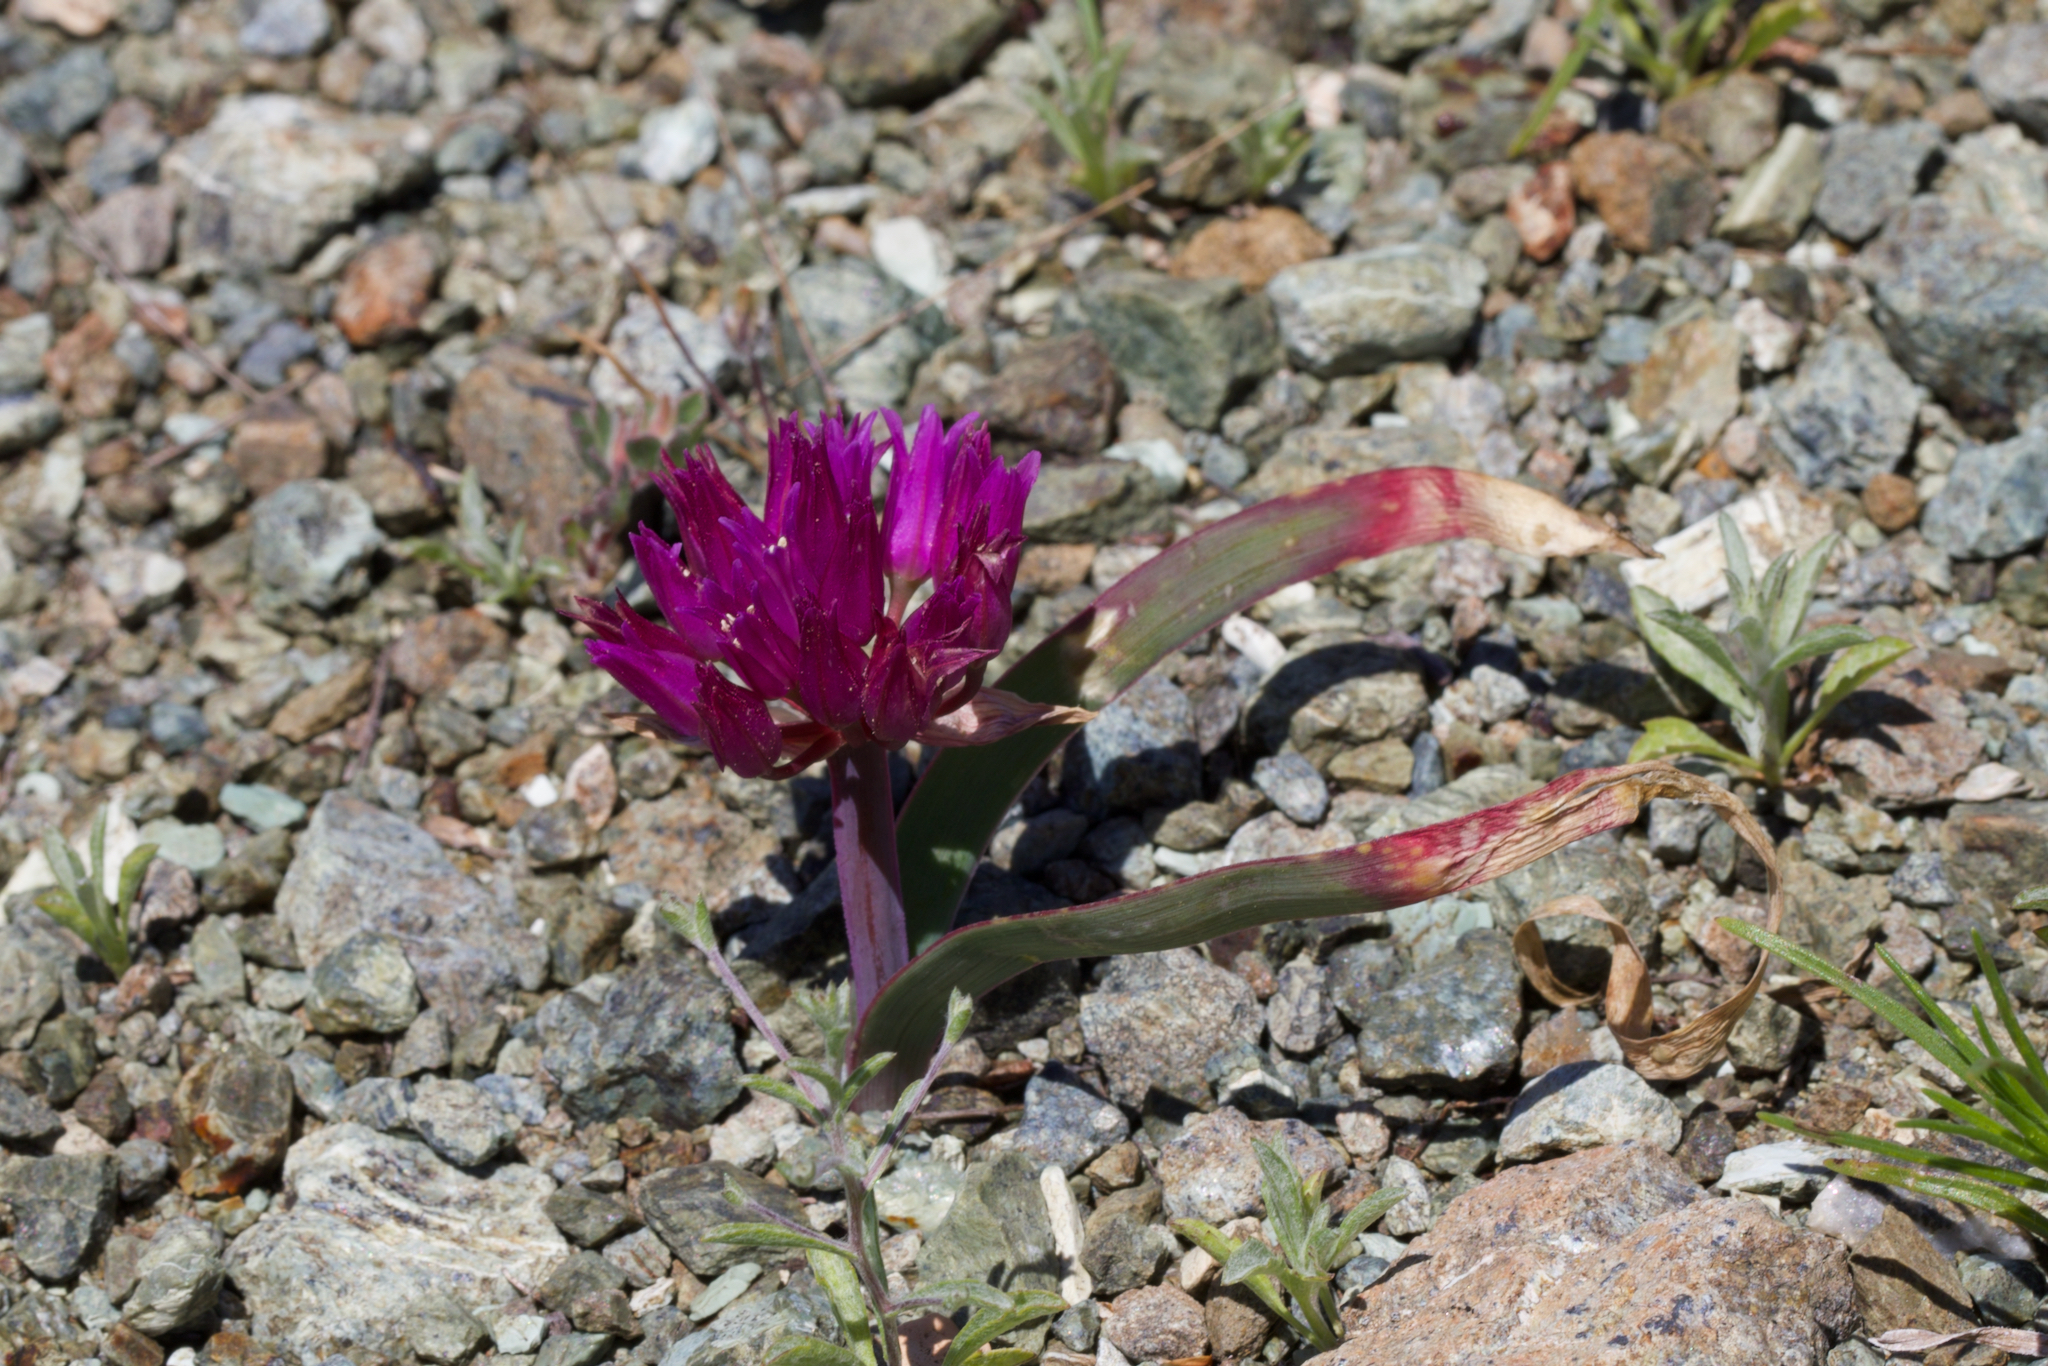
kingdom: Plantae
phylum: Tracheophyta
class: Liliopsida
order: Asparagales
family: Amaryllidaceae
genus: Allium
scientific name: Allium falcifolium
